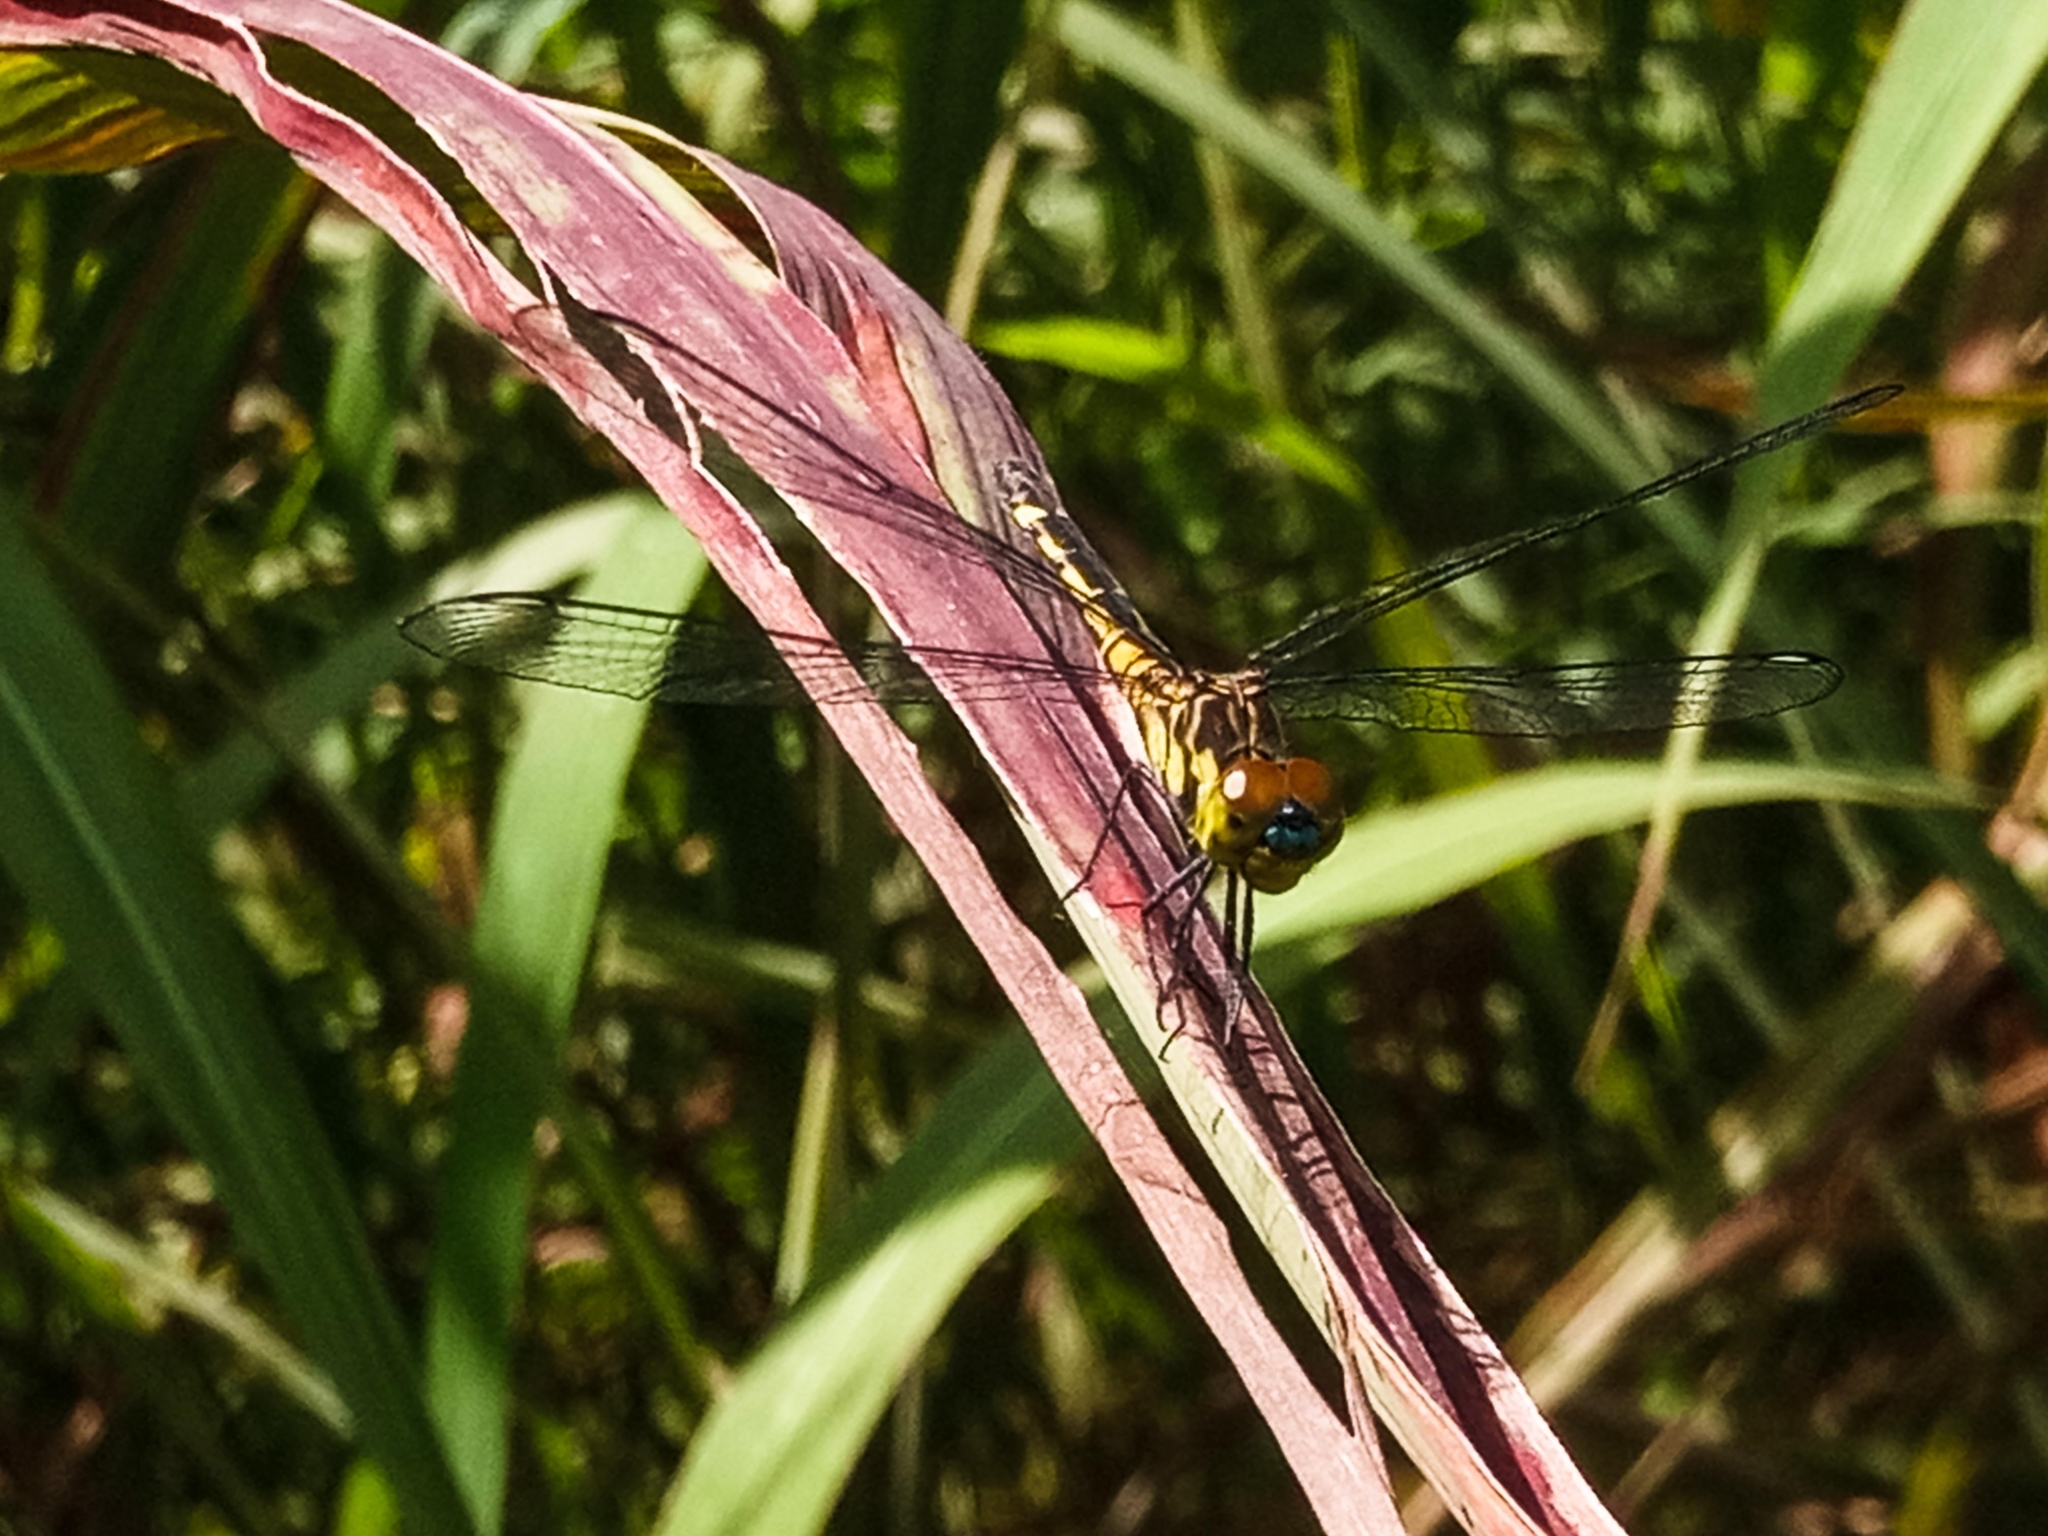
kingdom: Animalia
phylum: Arthropoda
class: Insecta
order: Odonata
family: Libellulidae
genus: Chalcostephia
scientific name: Chalcostephia flavifrons
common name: Inspector
